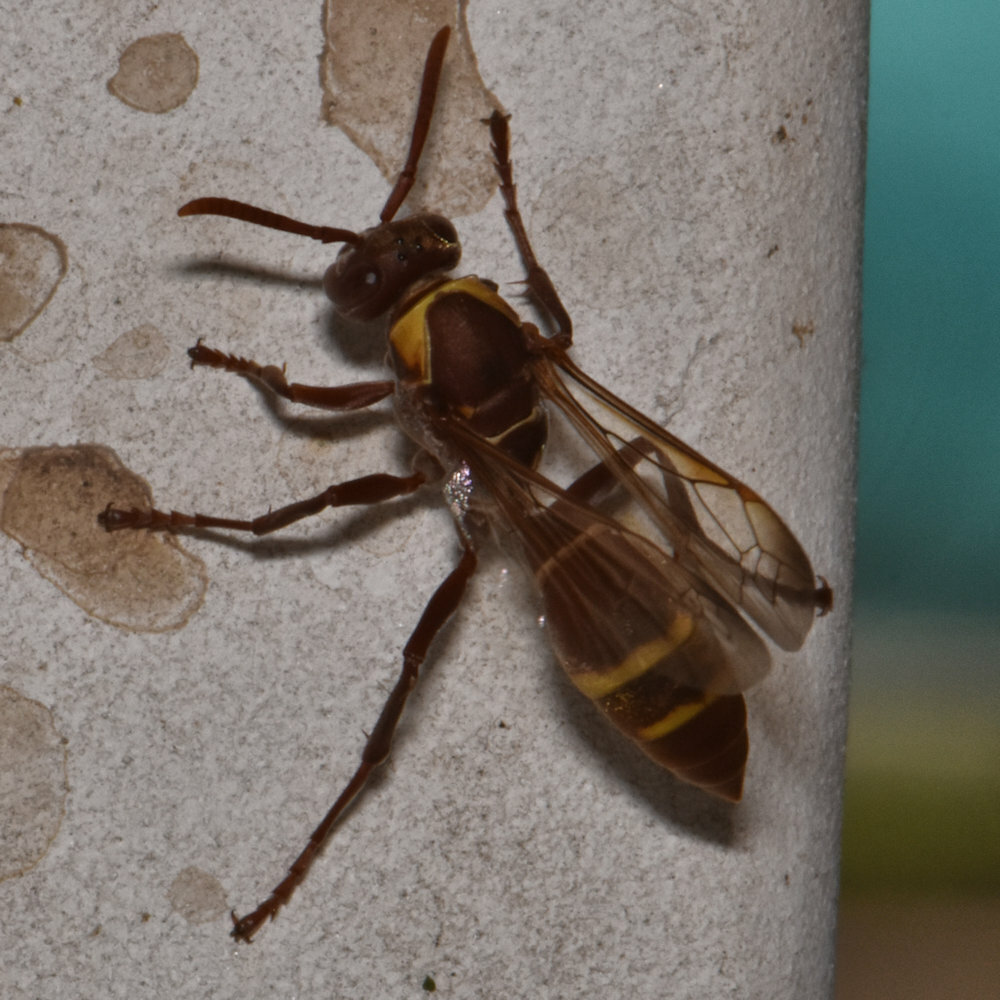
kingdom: Animalia
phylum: Arthropoda
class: Insecta
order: Hymenoptera
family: Eumenidae
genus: Polistes
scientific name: Polistes badius
